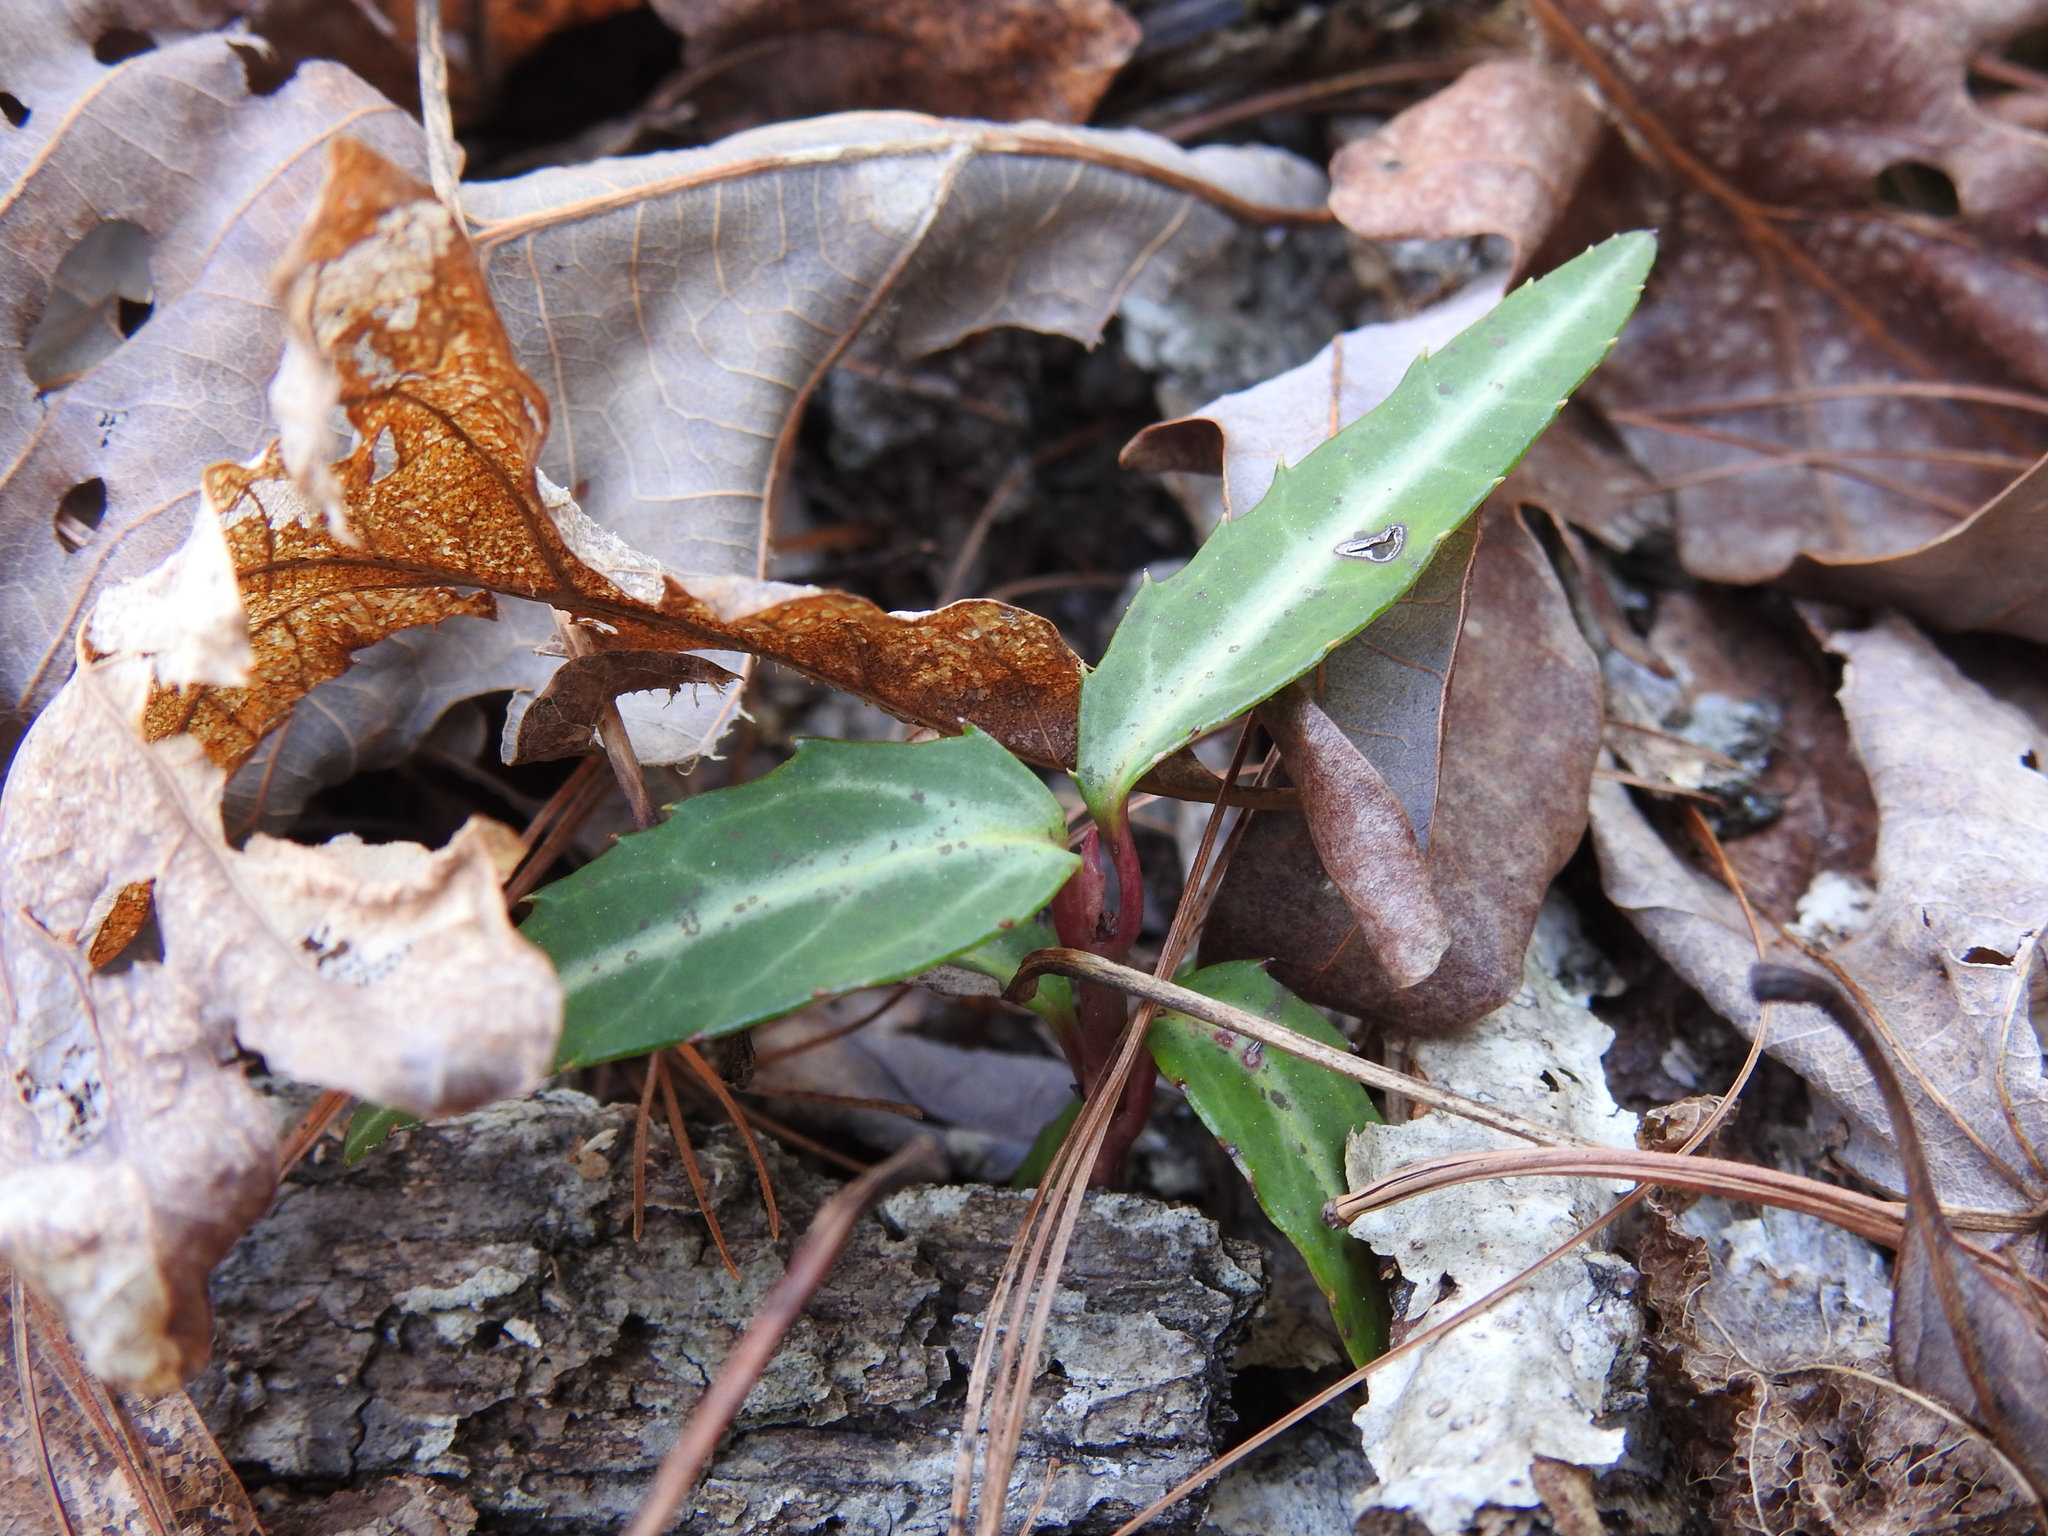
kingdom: Plantae
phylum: Tracheophyta
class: Magnoliopsida
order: Ericales
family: Ericaceae
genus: Chimaphila
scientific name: Chimaphila maculata
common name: Spotted pipsissewa
